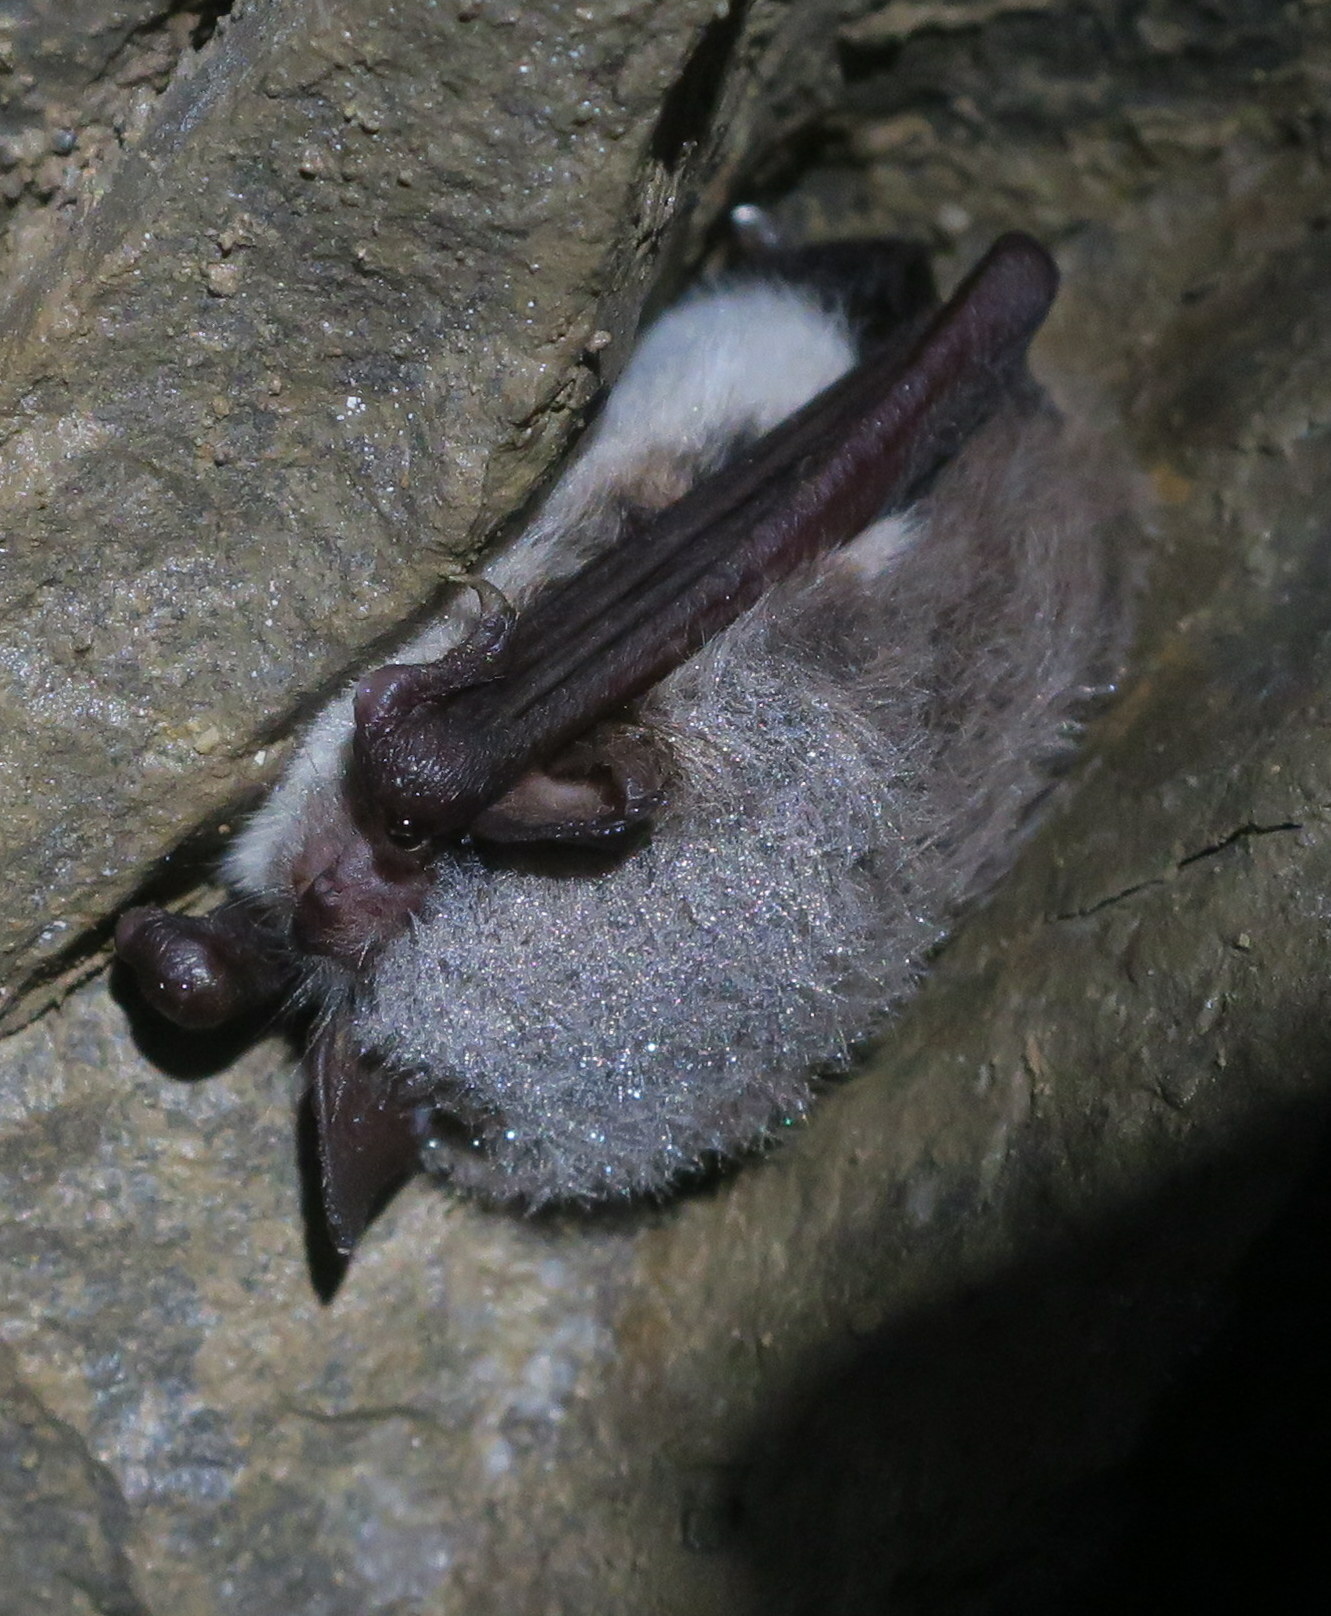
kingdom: Animalia
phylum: Chordata
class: Mammalia
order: Chiroptera
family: Vespertilionidae
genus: Myotis
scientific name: Myotis daubentonii
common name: Daubenton's myotis
